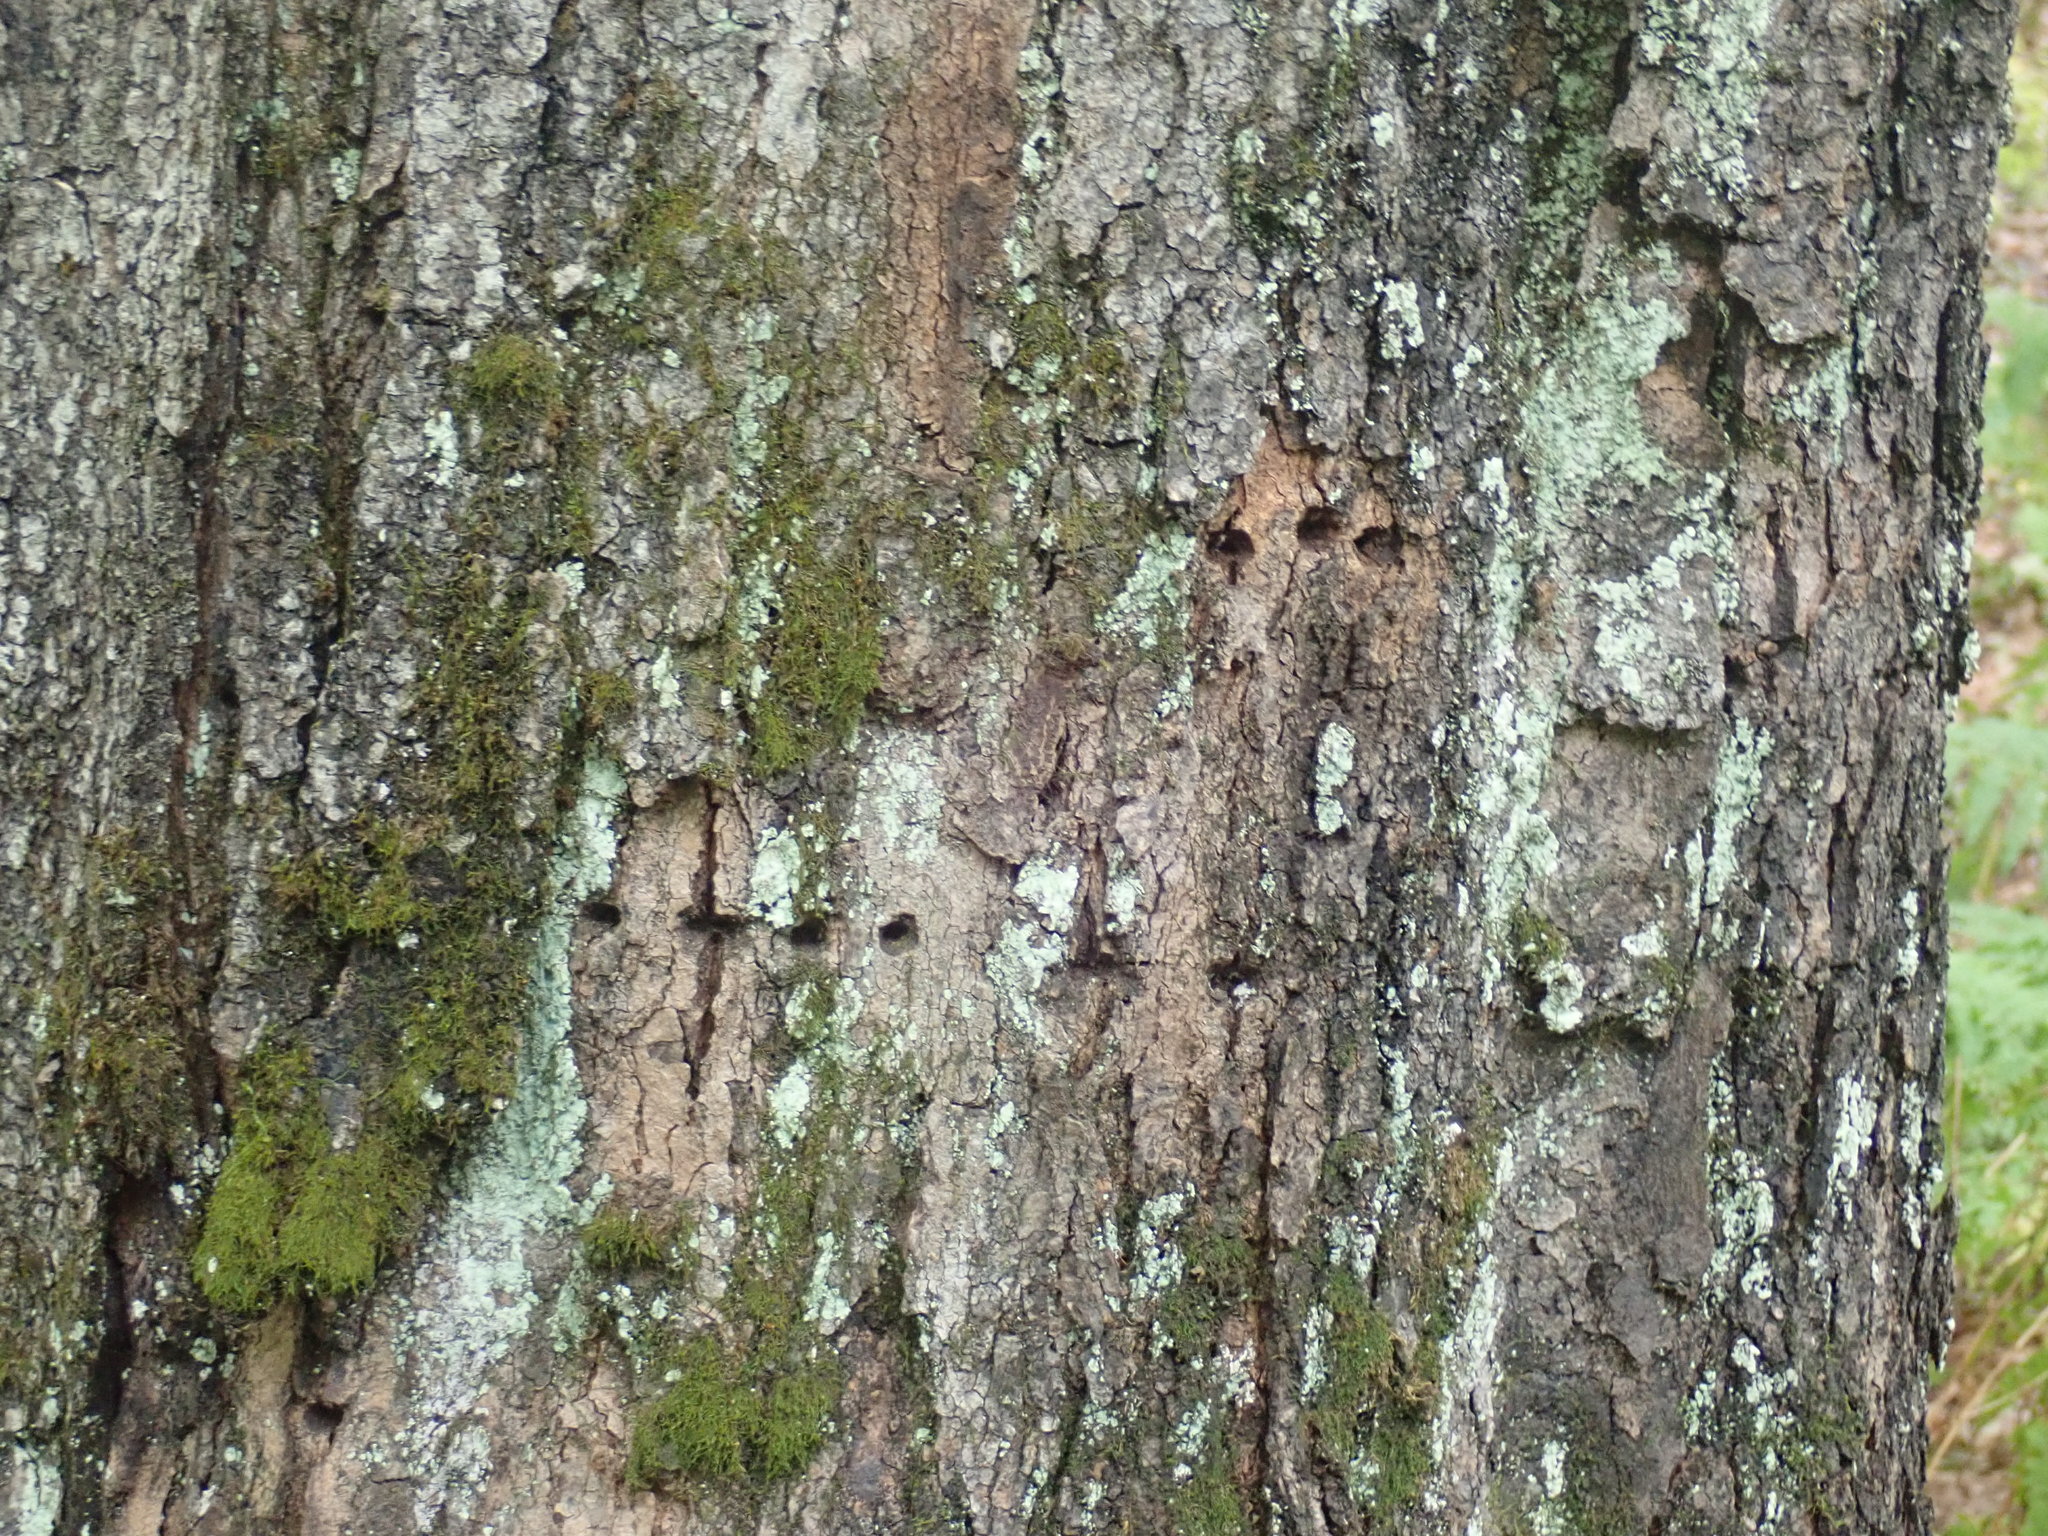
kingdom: Animalia
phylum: Chordata
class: Aves
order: Piciformes
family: Picidae
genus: Sphyrapicus
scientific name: Sphyrapicus varius
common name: Yellow-bellied sapsucker
